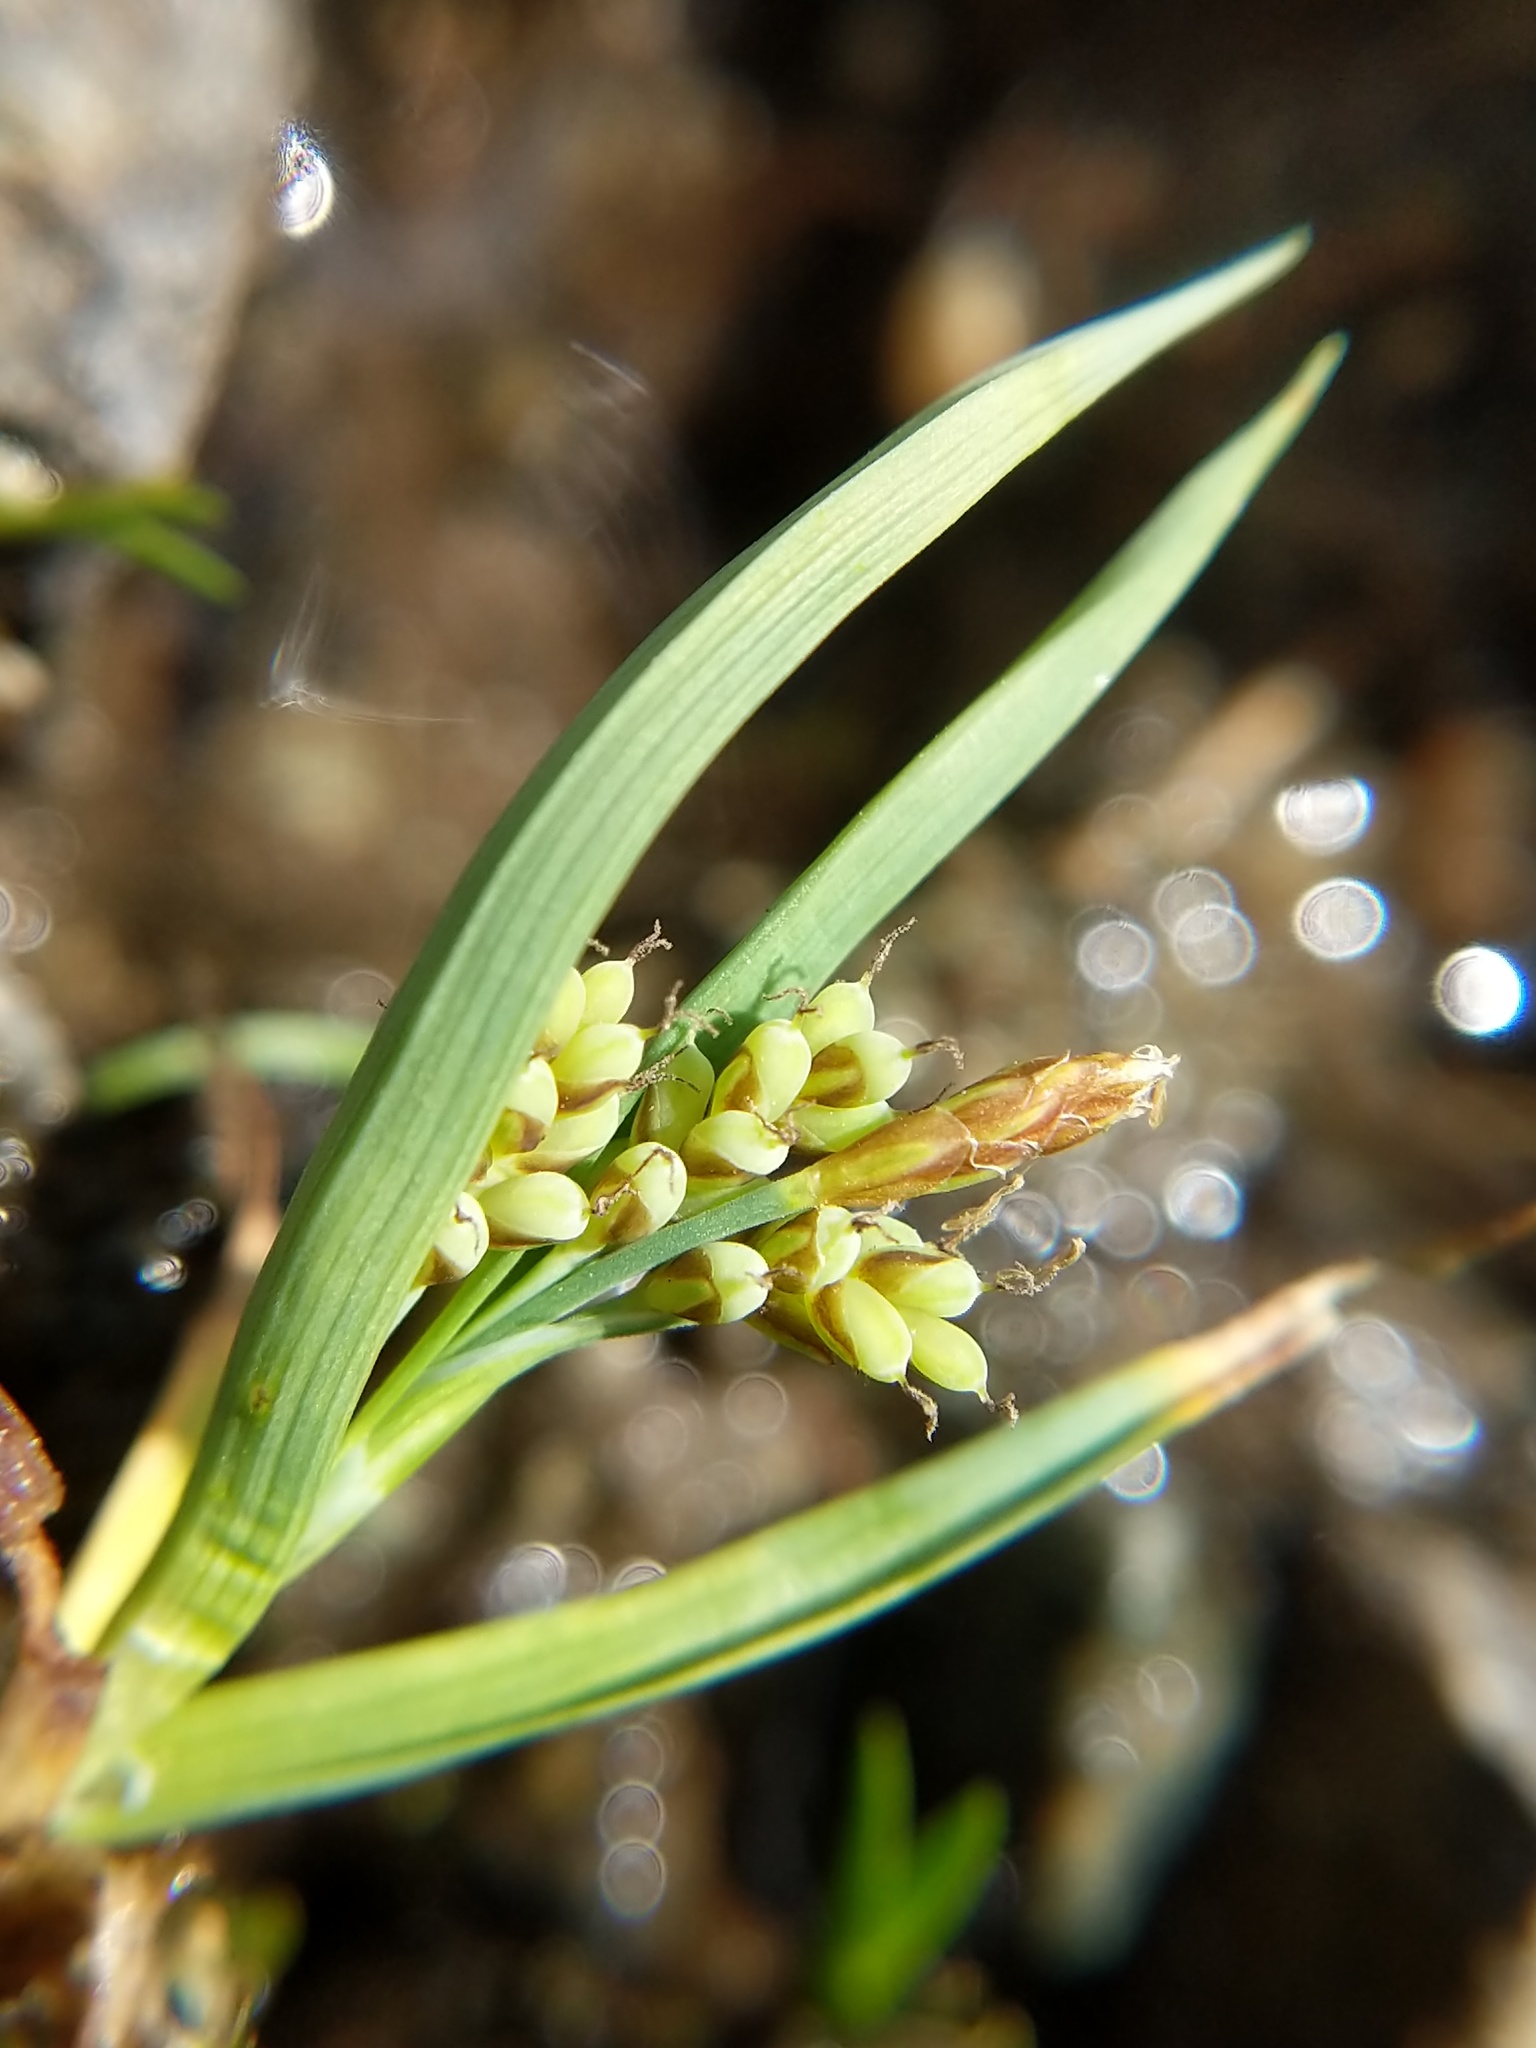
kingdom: Plantae
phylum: Tracheophyta
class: Liliopsida
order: Poales
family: Cyperaceae
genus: Carex
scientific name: Carex aurea
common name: Golden sedge
